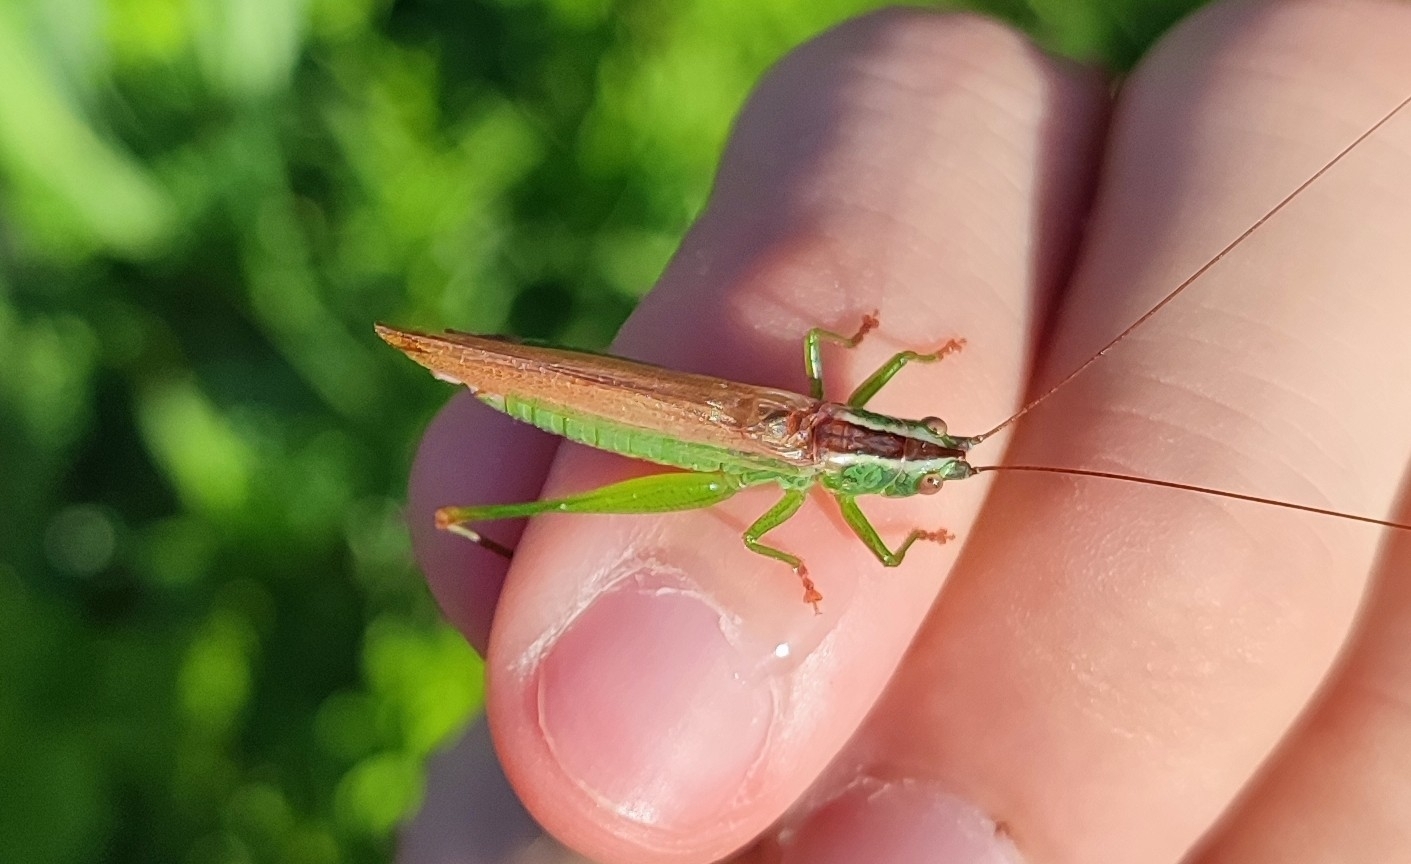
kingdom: Animalia
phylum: Arthropoda
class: Insecta
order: Orthoptera
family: Tettigoniidae
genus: Conocephalus
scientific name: Conocephalus fuscus
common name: Long-winged conehead
